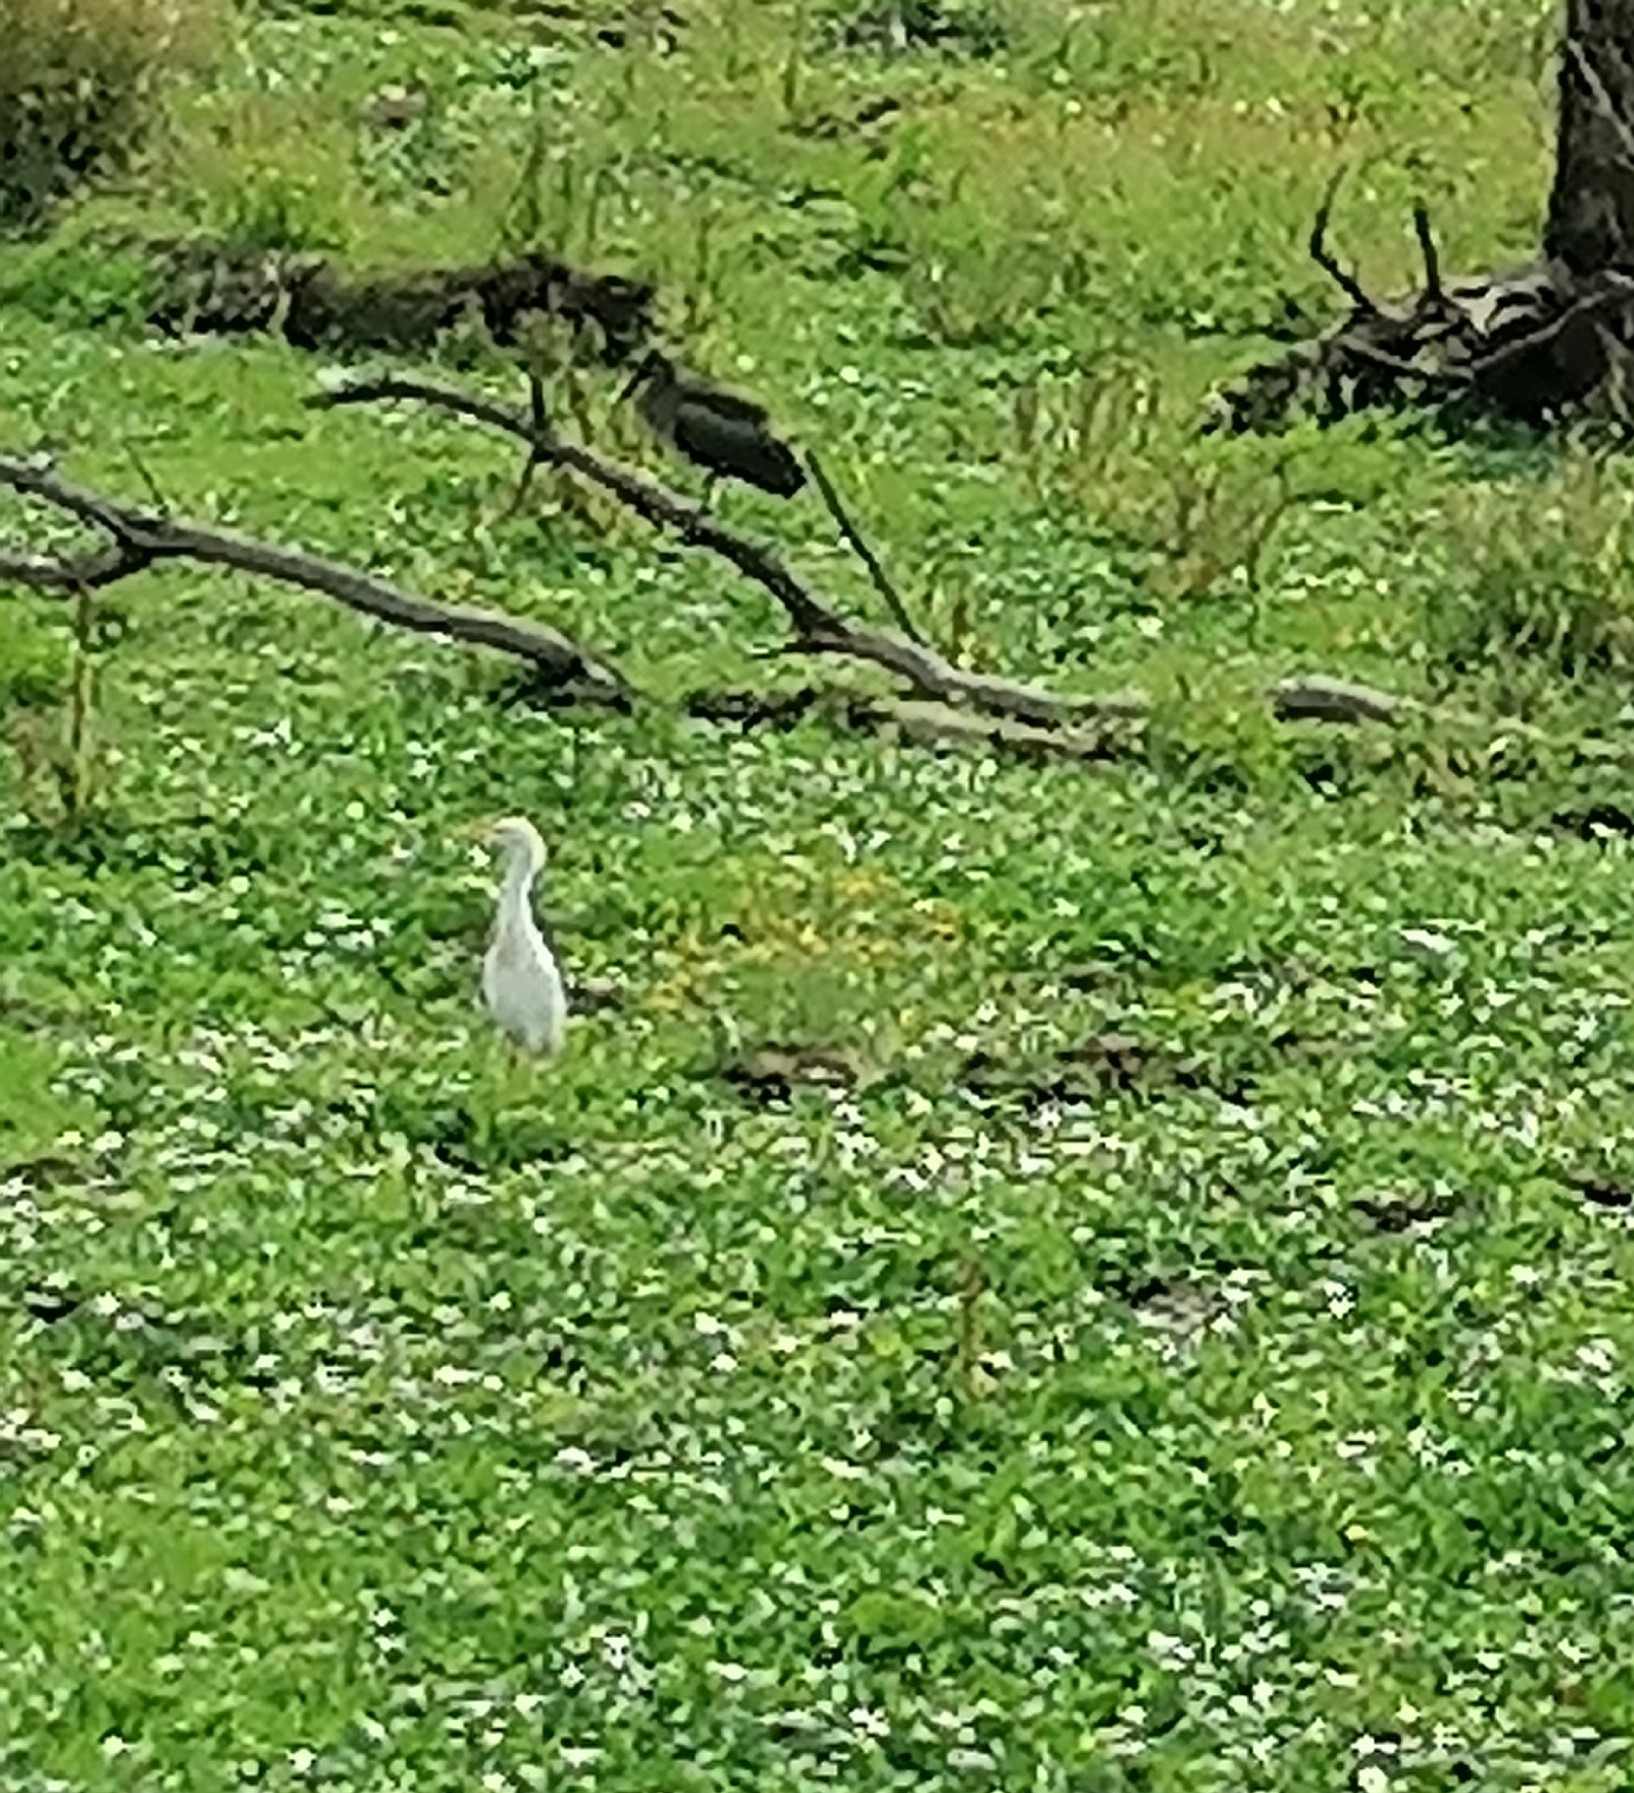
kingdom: Animalia
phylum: Chordata
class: Aves
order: Pelecaniformes
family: Ardeidae
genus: Bubulcus
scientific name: Bubulcus ibis
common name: Cattle egret
